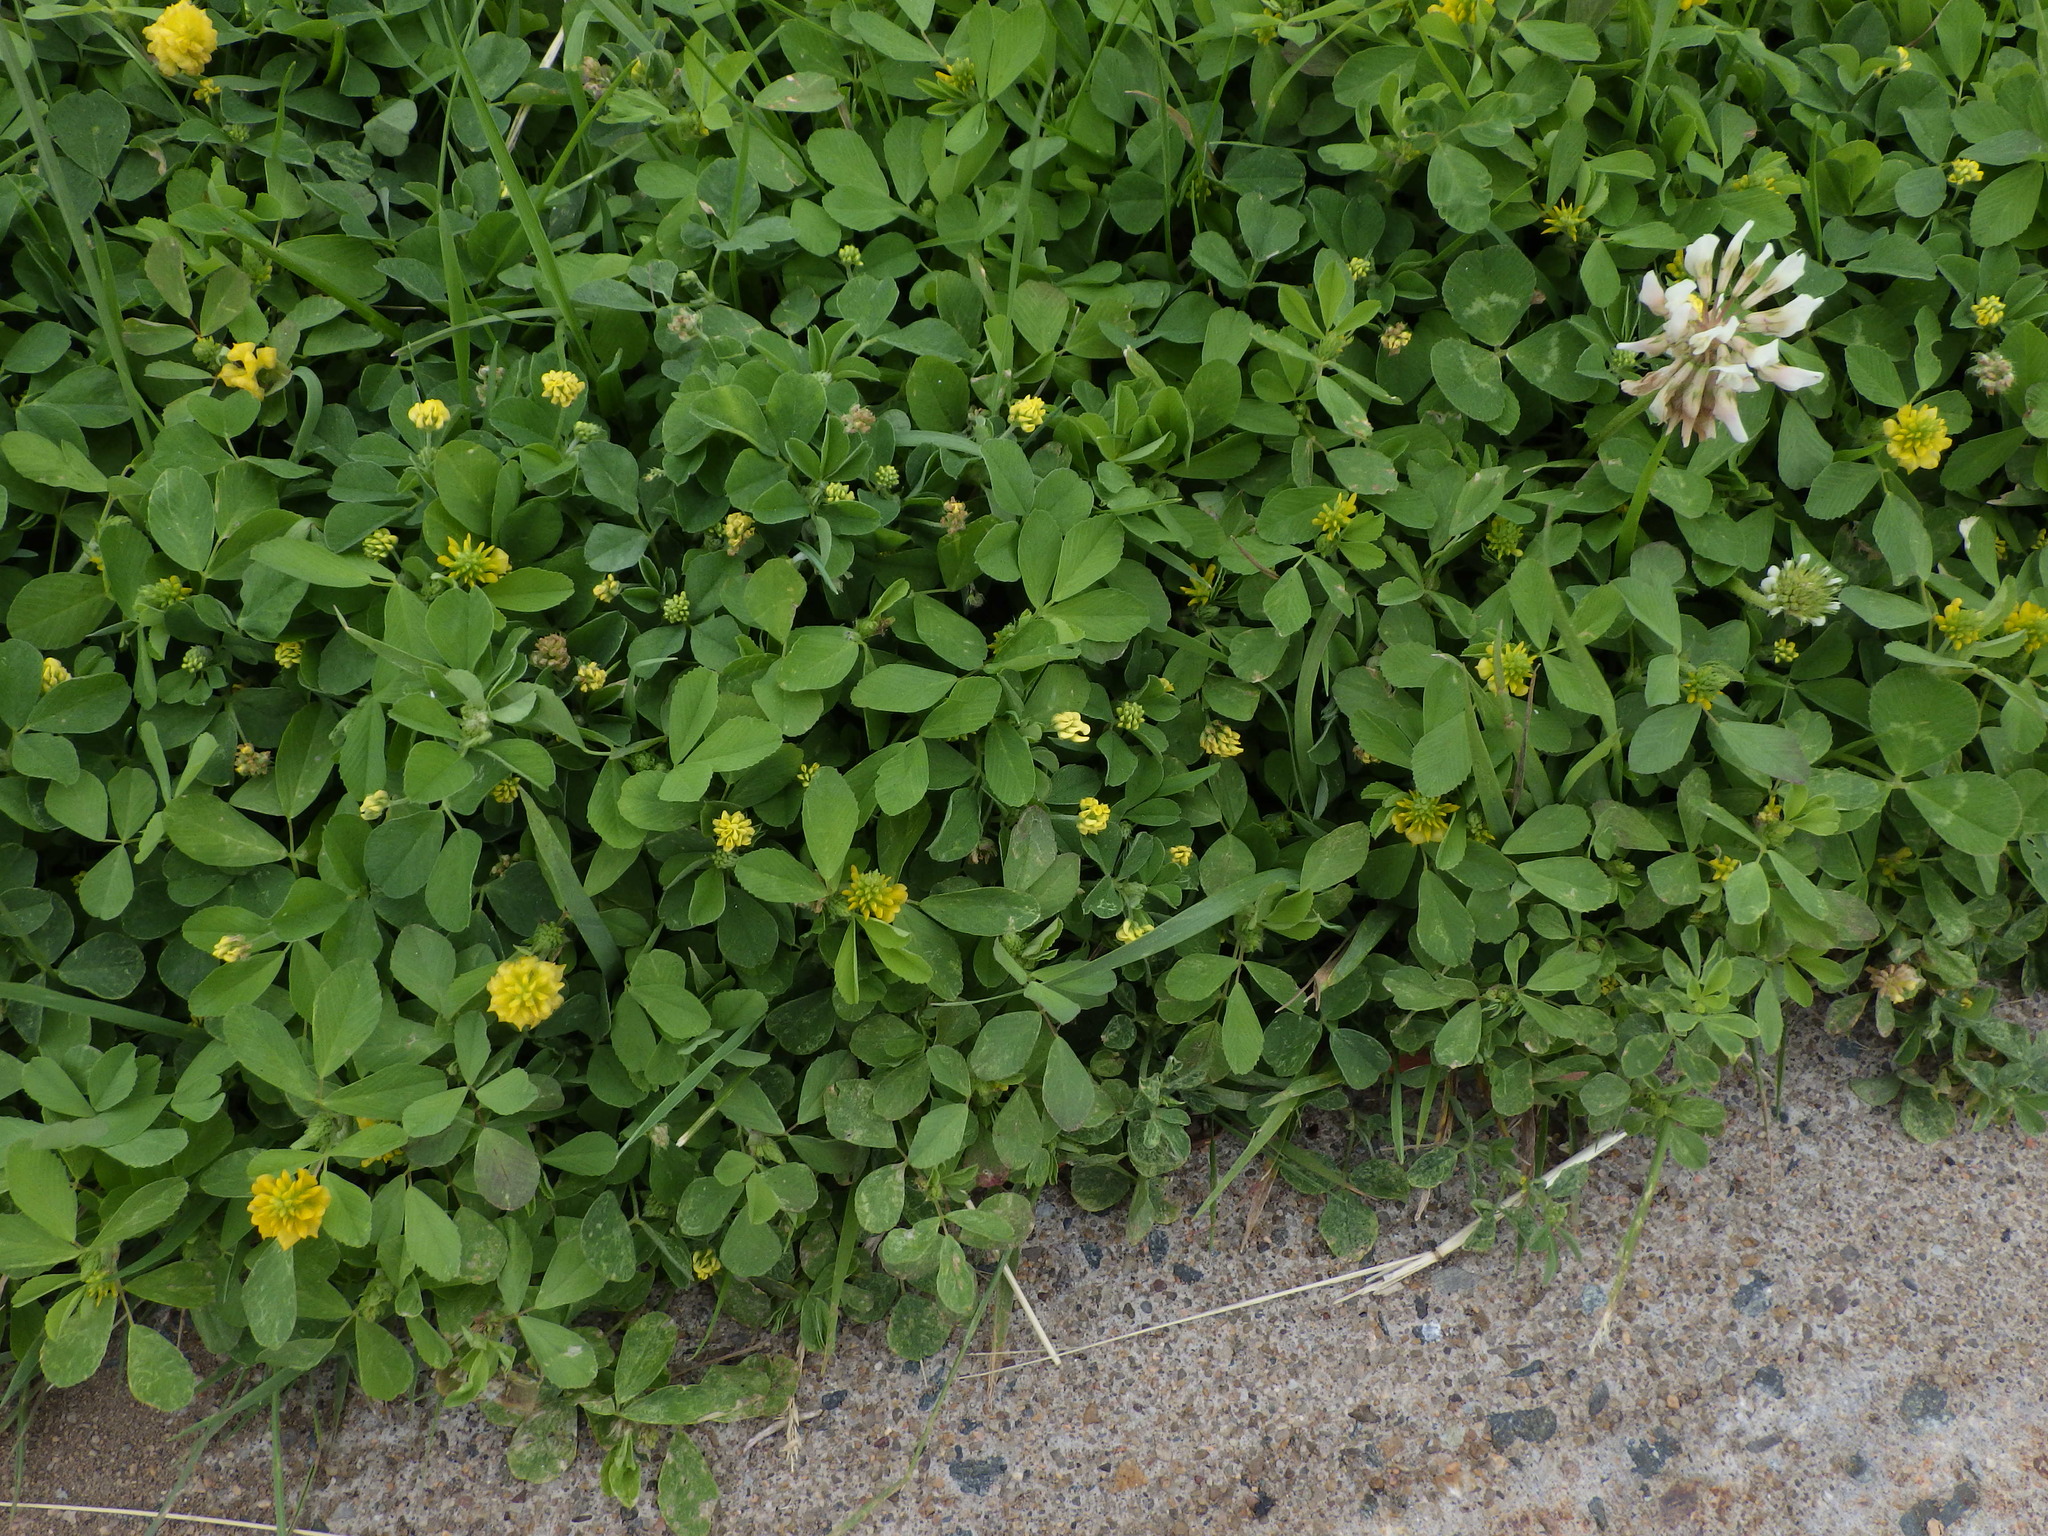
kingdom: Plantae
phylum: Tracheophyta
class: Magnoliopsida
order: Fabales
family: Fabaceae
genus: Trifolium
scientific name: Trifolium campestre
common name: Field clover
